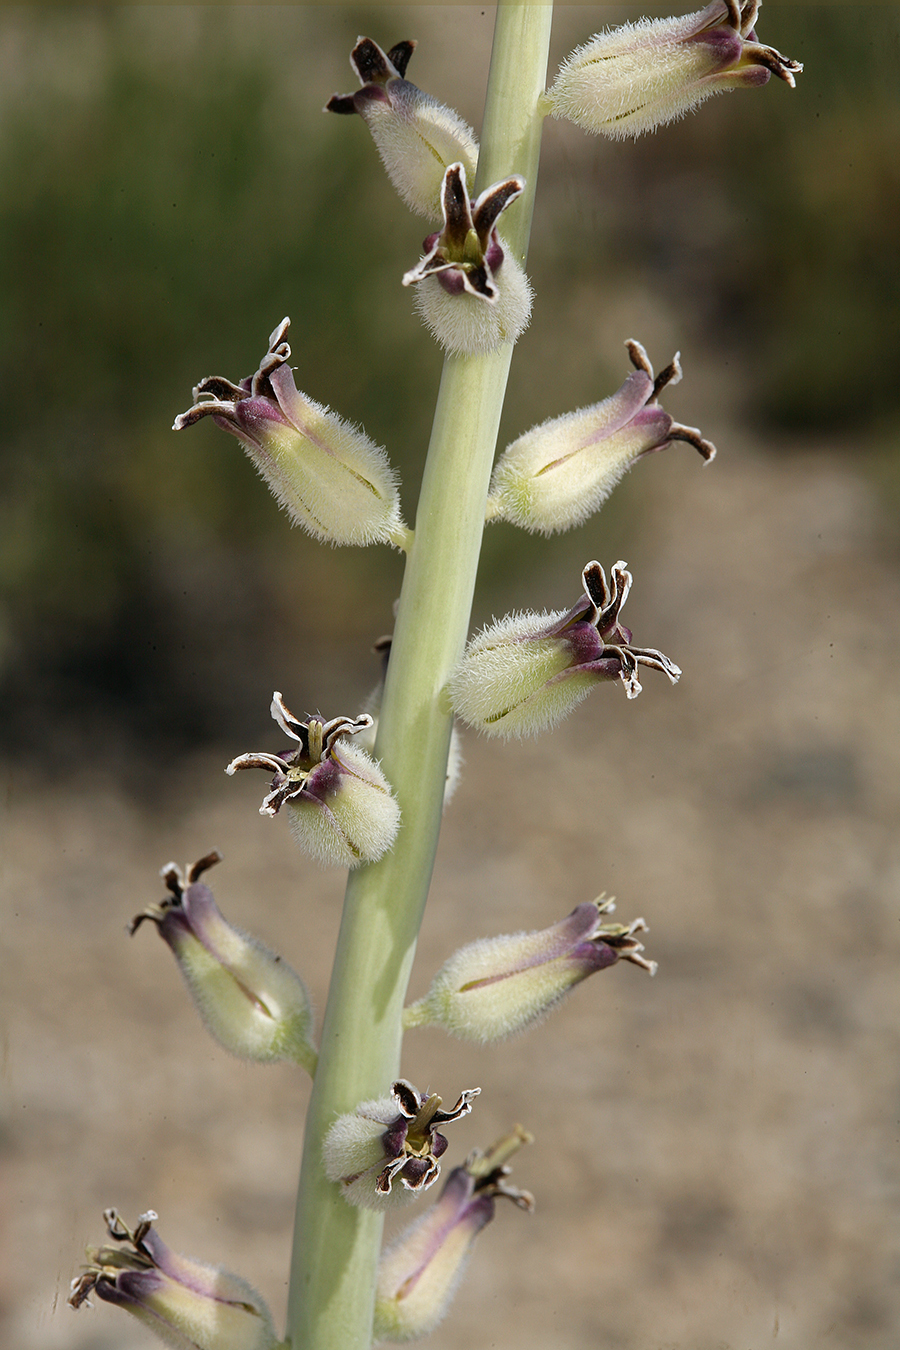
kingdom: Plantae
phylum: Tracheophyta
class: Magnoliopsida
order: Brassicales
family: Brassicaceae
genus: Streptanthus
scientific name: Streptanthus crassicaulis
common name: Thick-stem wild cabbage
